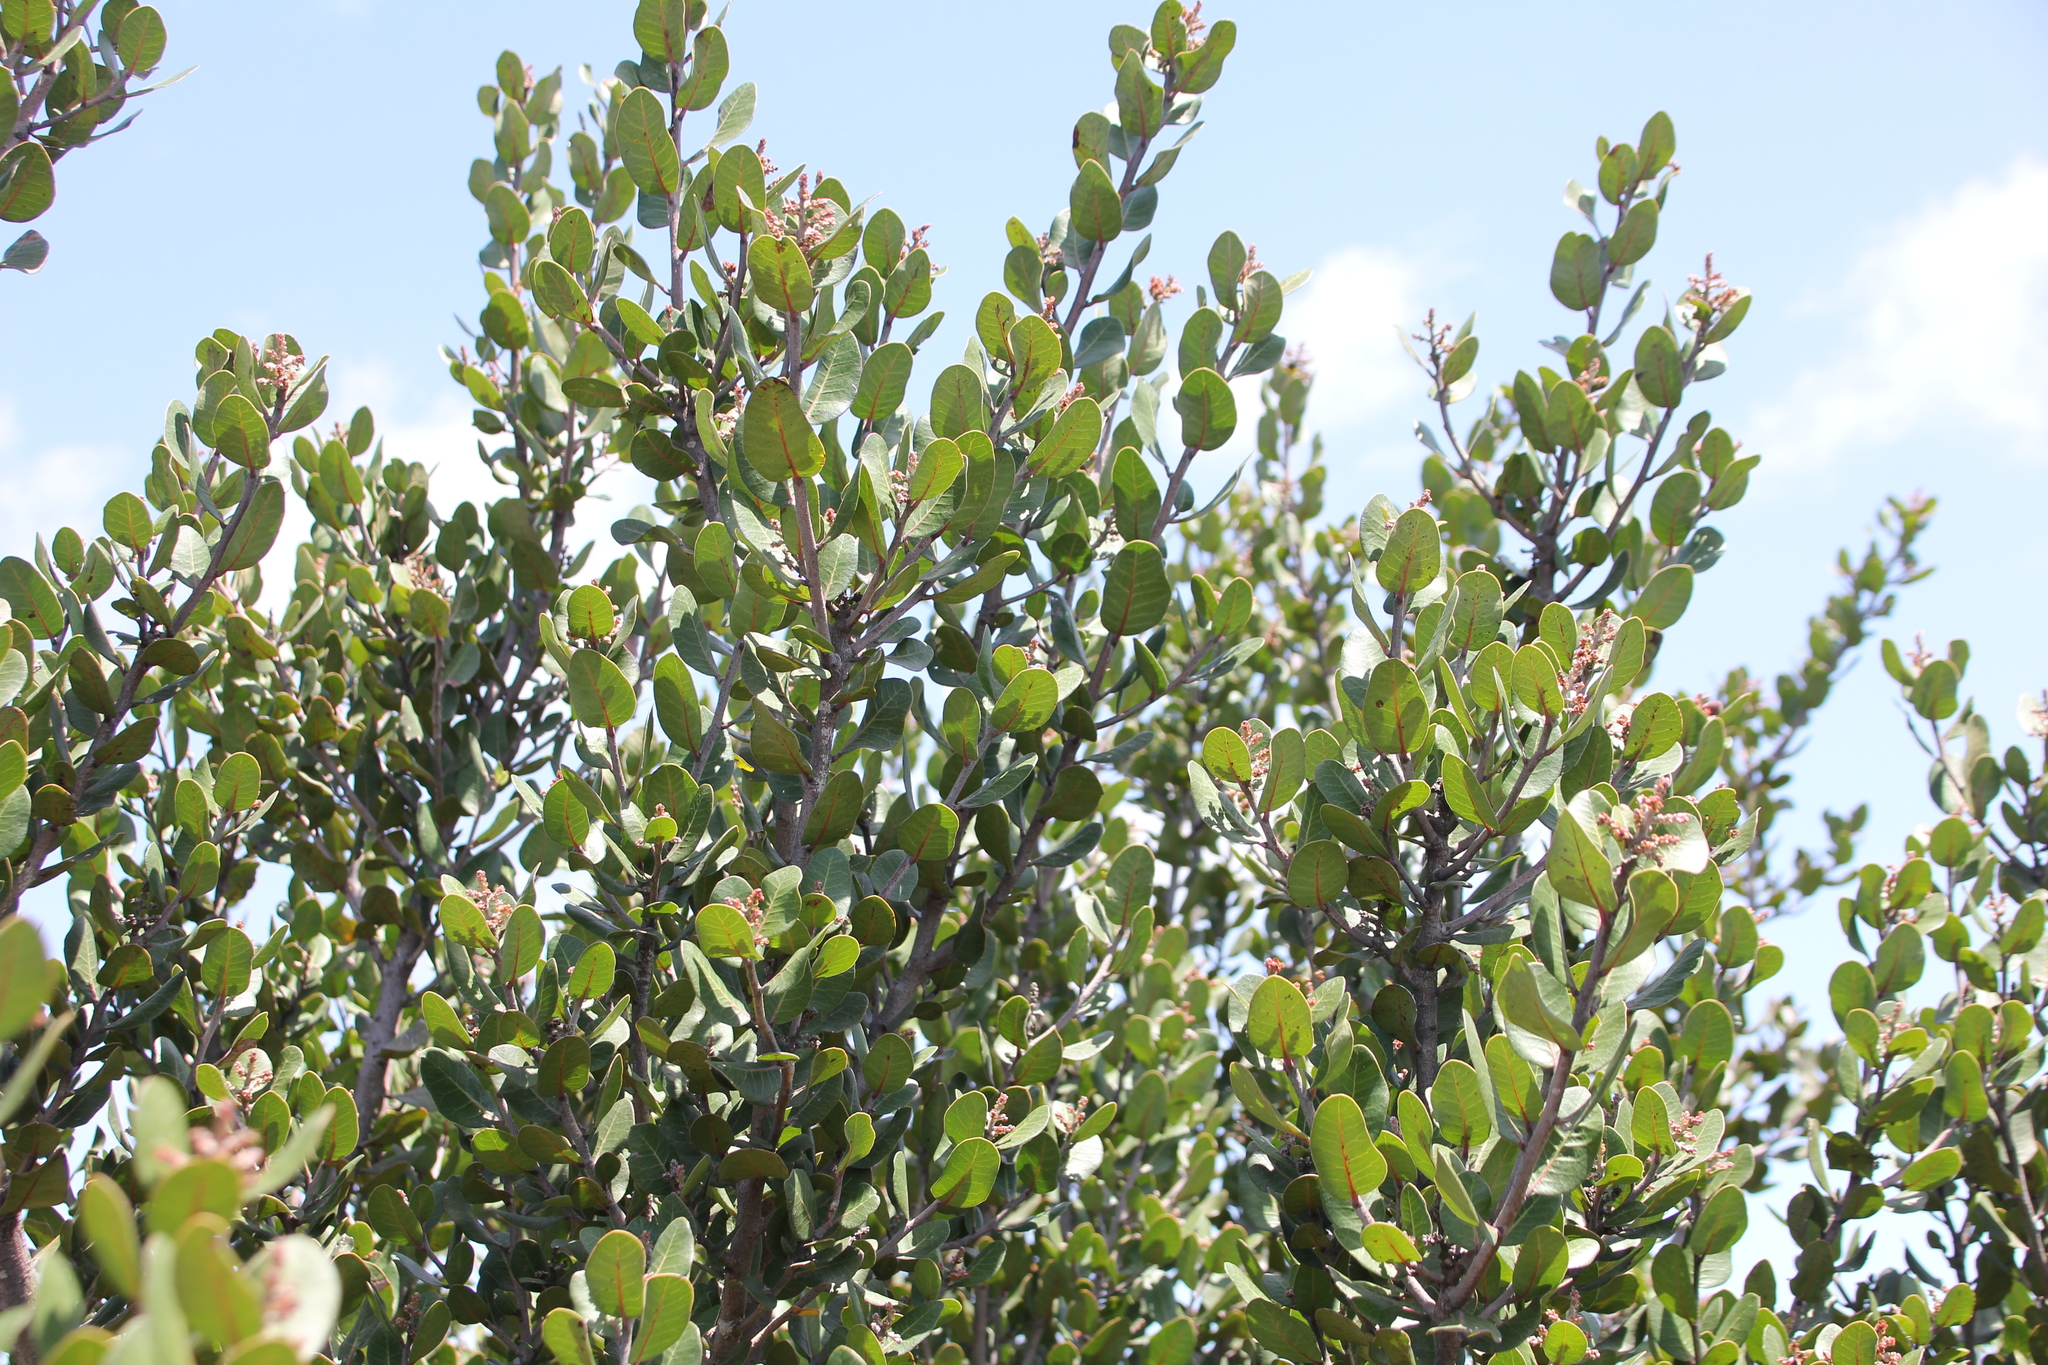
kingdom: Plantae
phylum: Tracheophyta
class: Magnoliopsida
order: Sapindales
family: Anacardiaceae
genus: Rhus
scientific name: Rhus integrifolia
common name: Lemonade sumac
